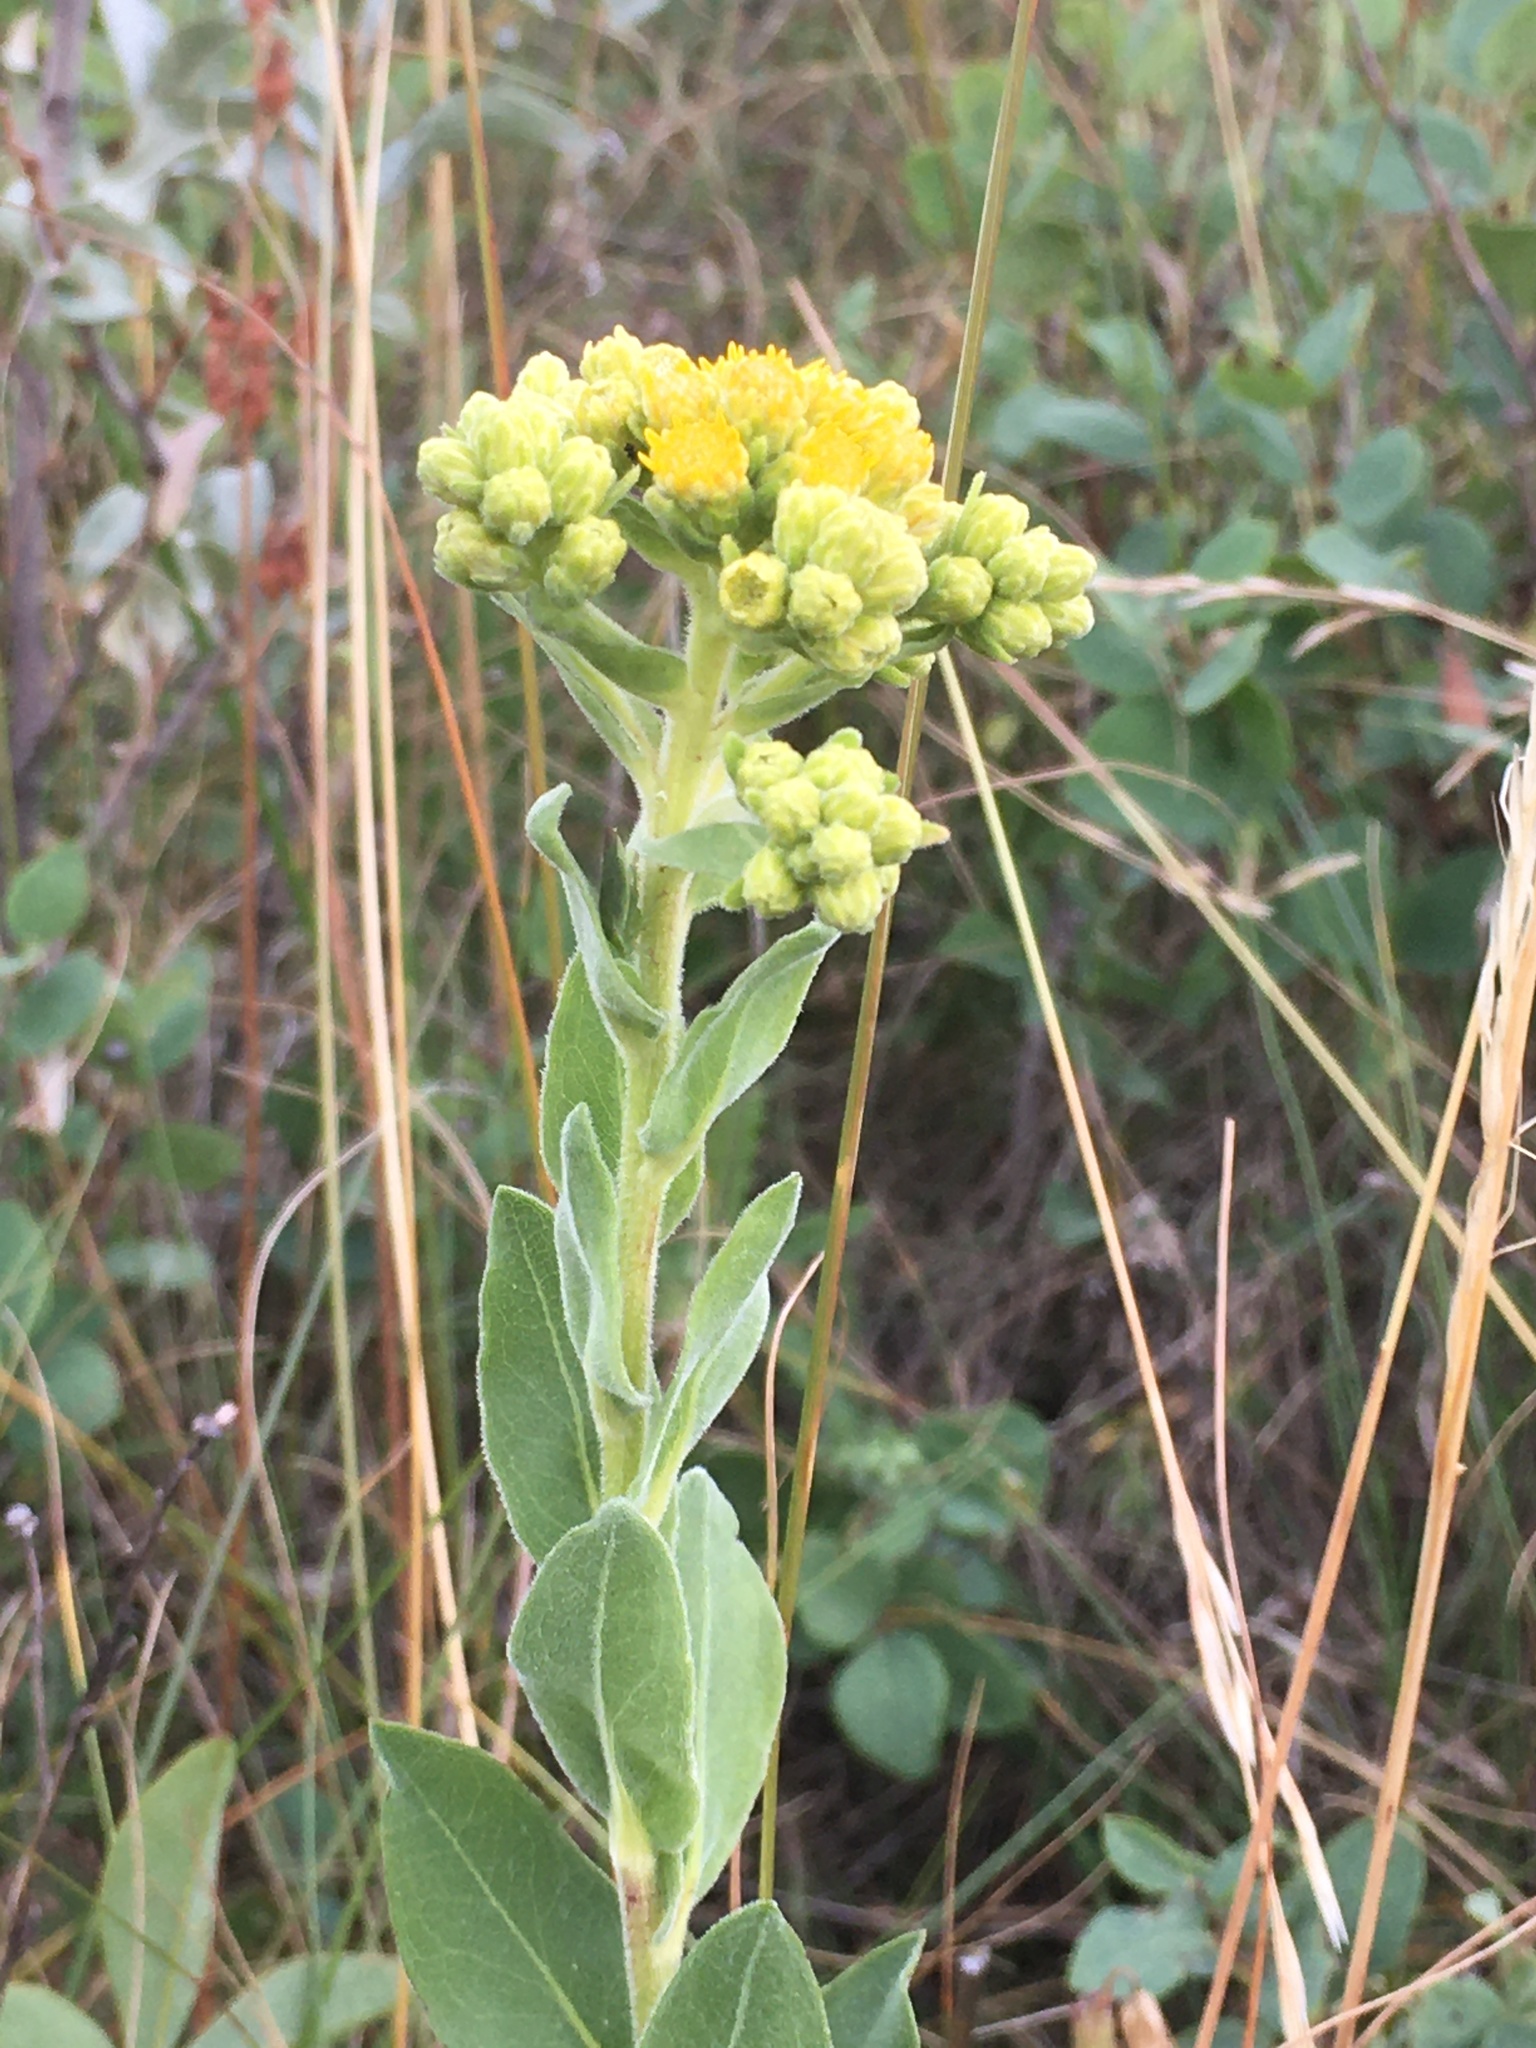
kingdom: Plantae
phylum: Tracheophyta
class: Magnoliopsida
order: Asterales
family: Asteraceae
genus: Solidago
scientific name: Solidago rigida
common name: Rigid goldenrod
